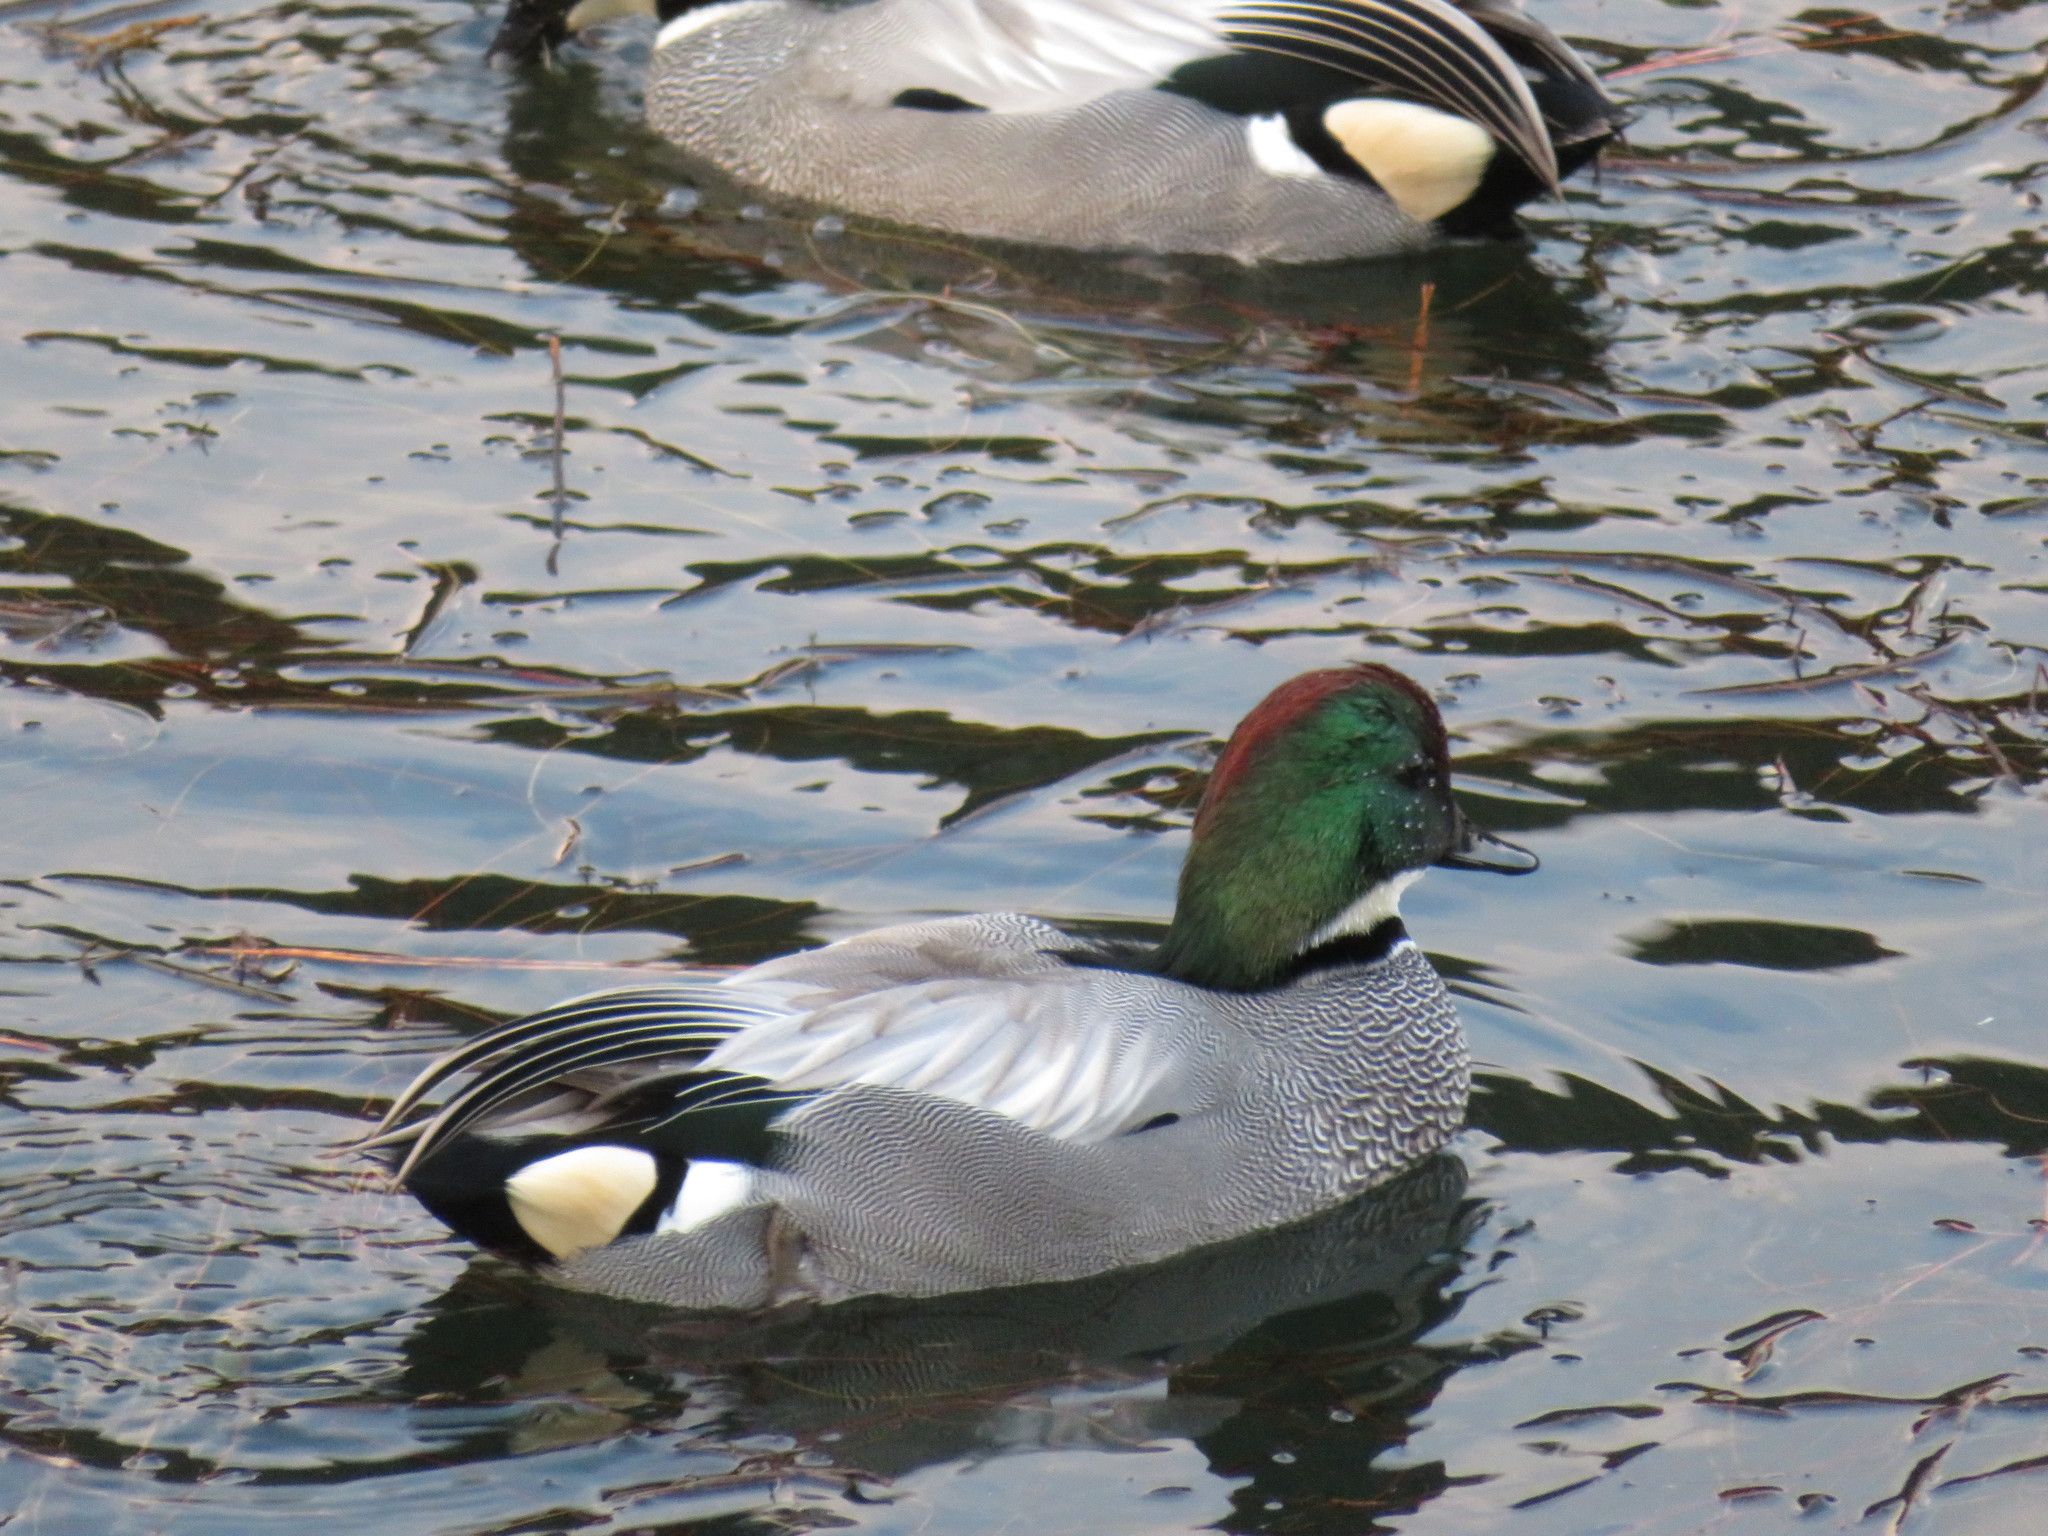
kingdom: Animalia
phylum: Chordata
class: Aves
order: Anseriformes
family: Anatidae
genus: Mareca
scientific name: Mareca falcata
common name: Falcated duck
